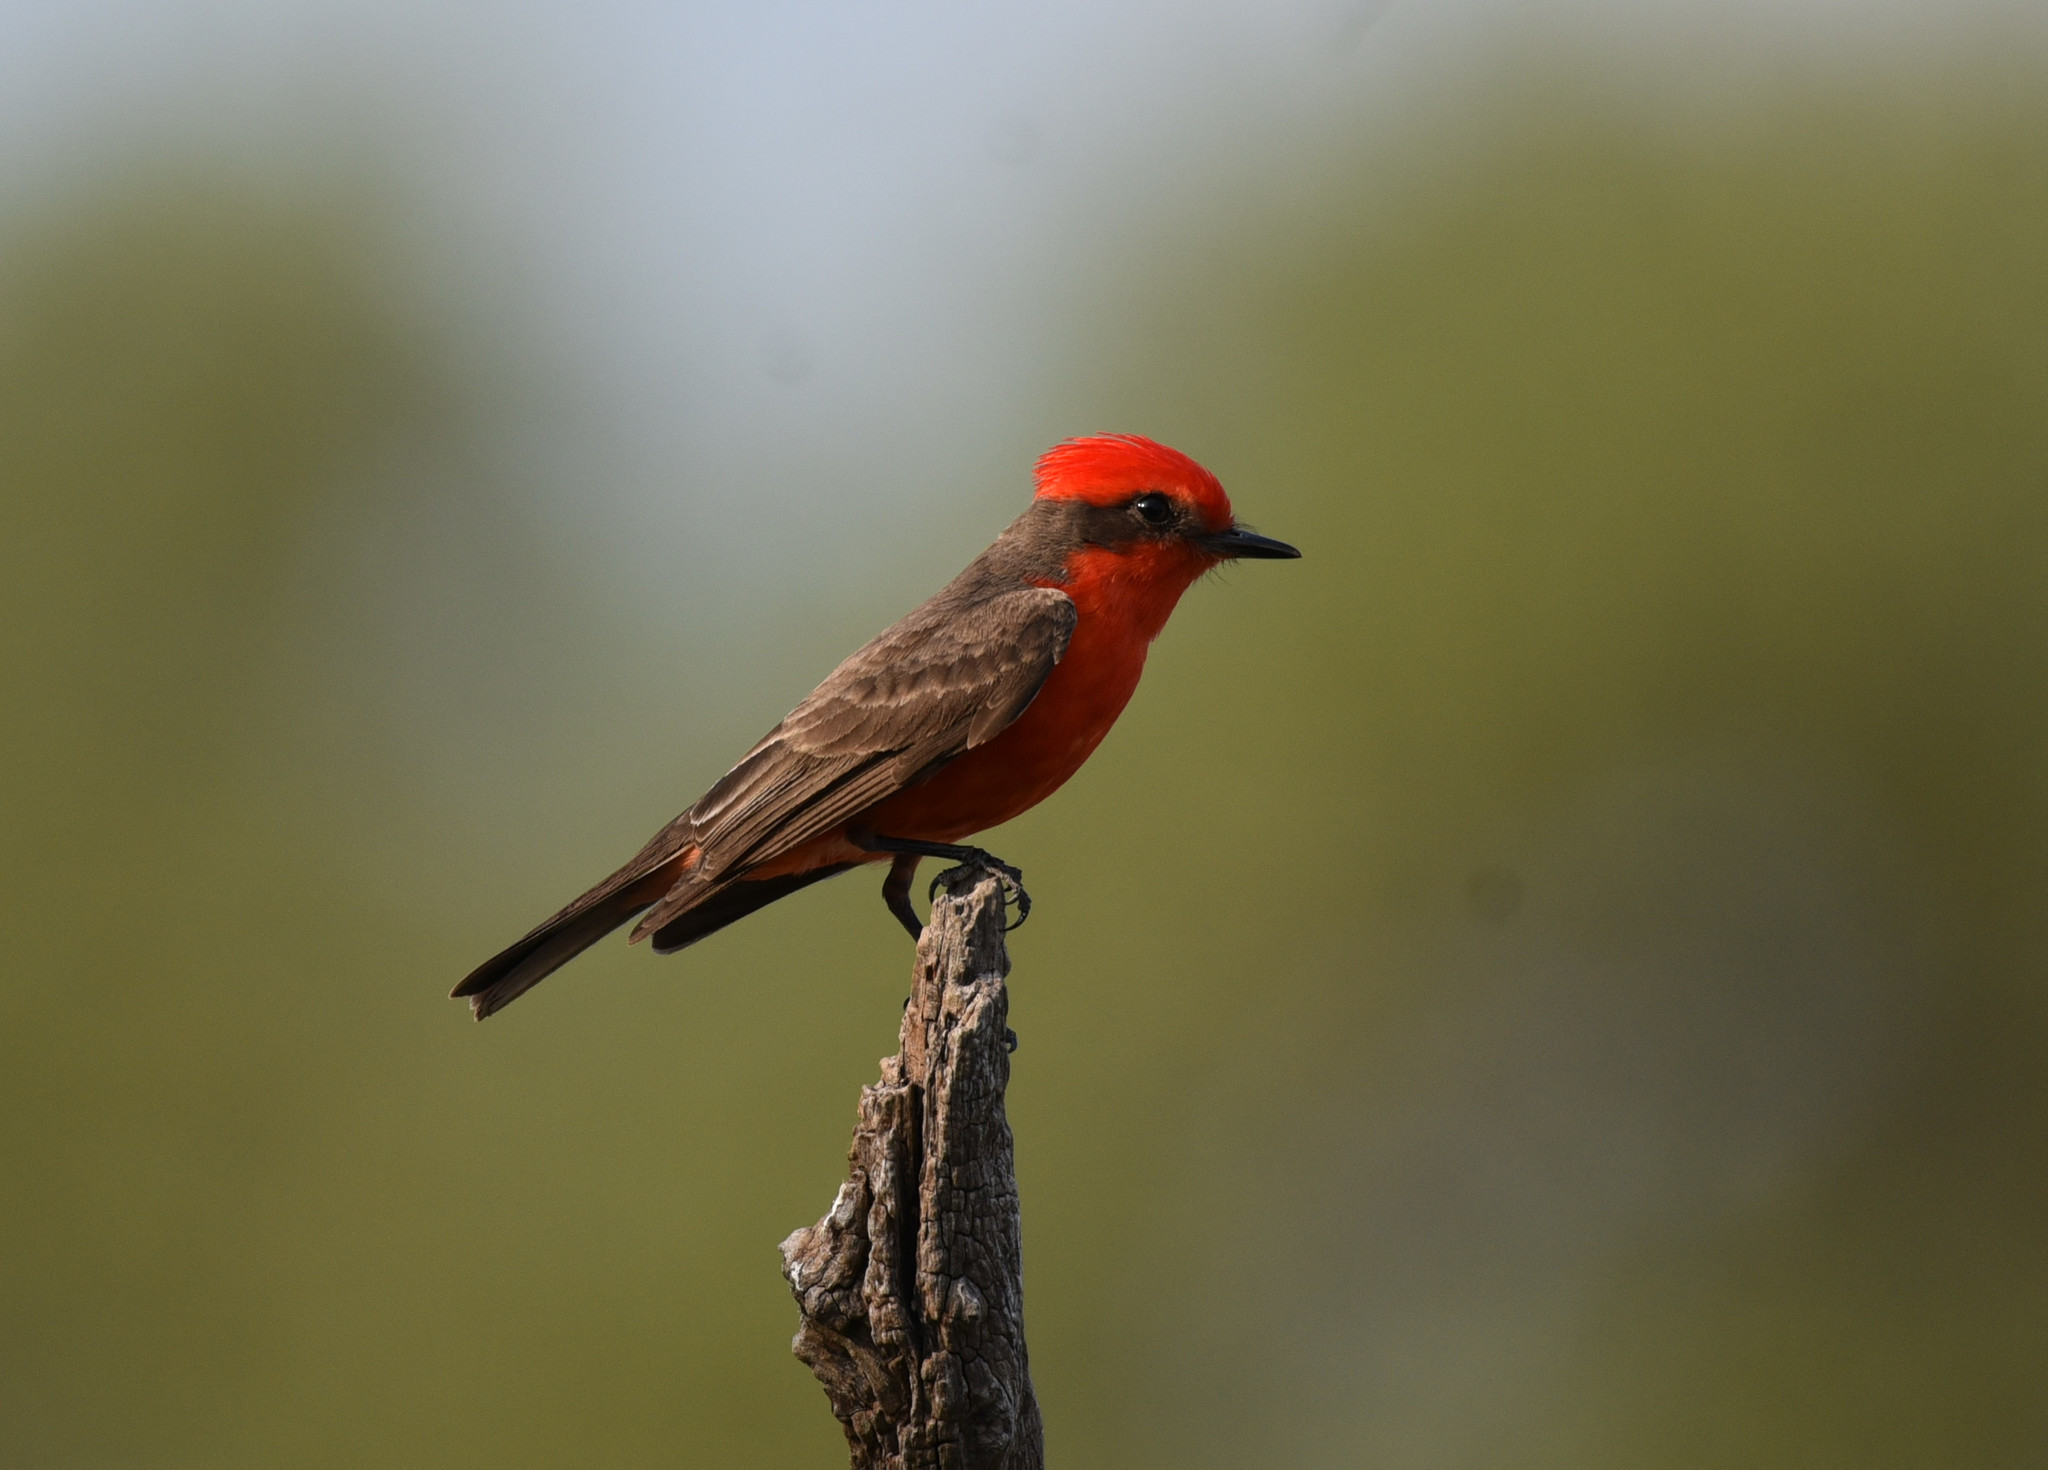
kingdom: Animalia
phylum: Chordata
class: Aves
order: Passeriformes
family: Tyrannidae
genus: Pyrocephalus
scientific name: Pyrocephalus rubinus
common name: Vermilion flycatcher
